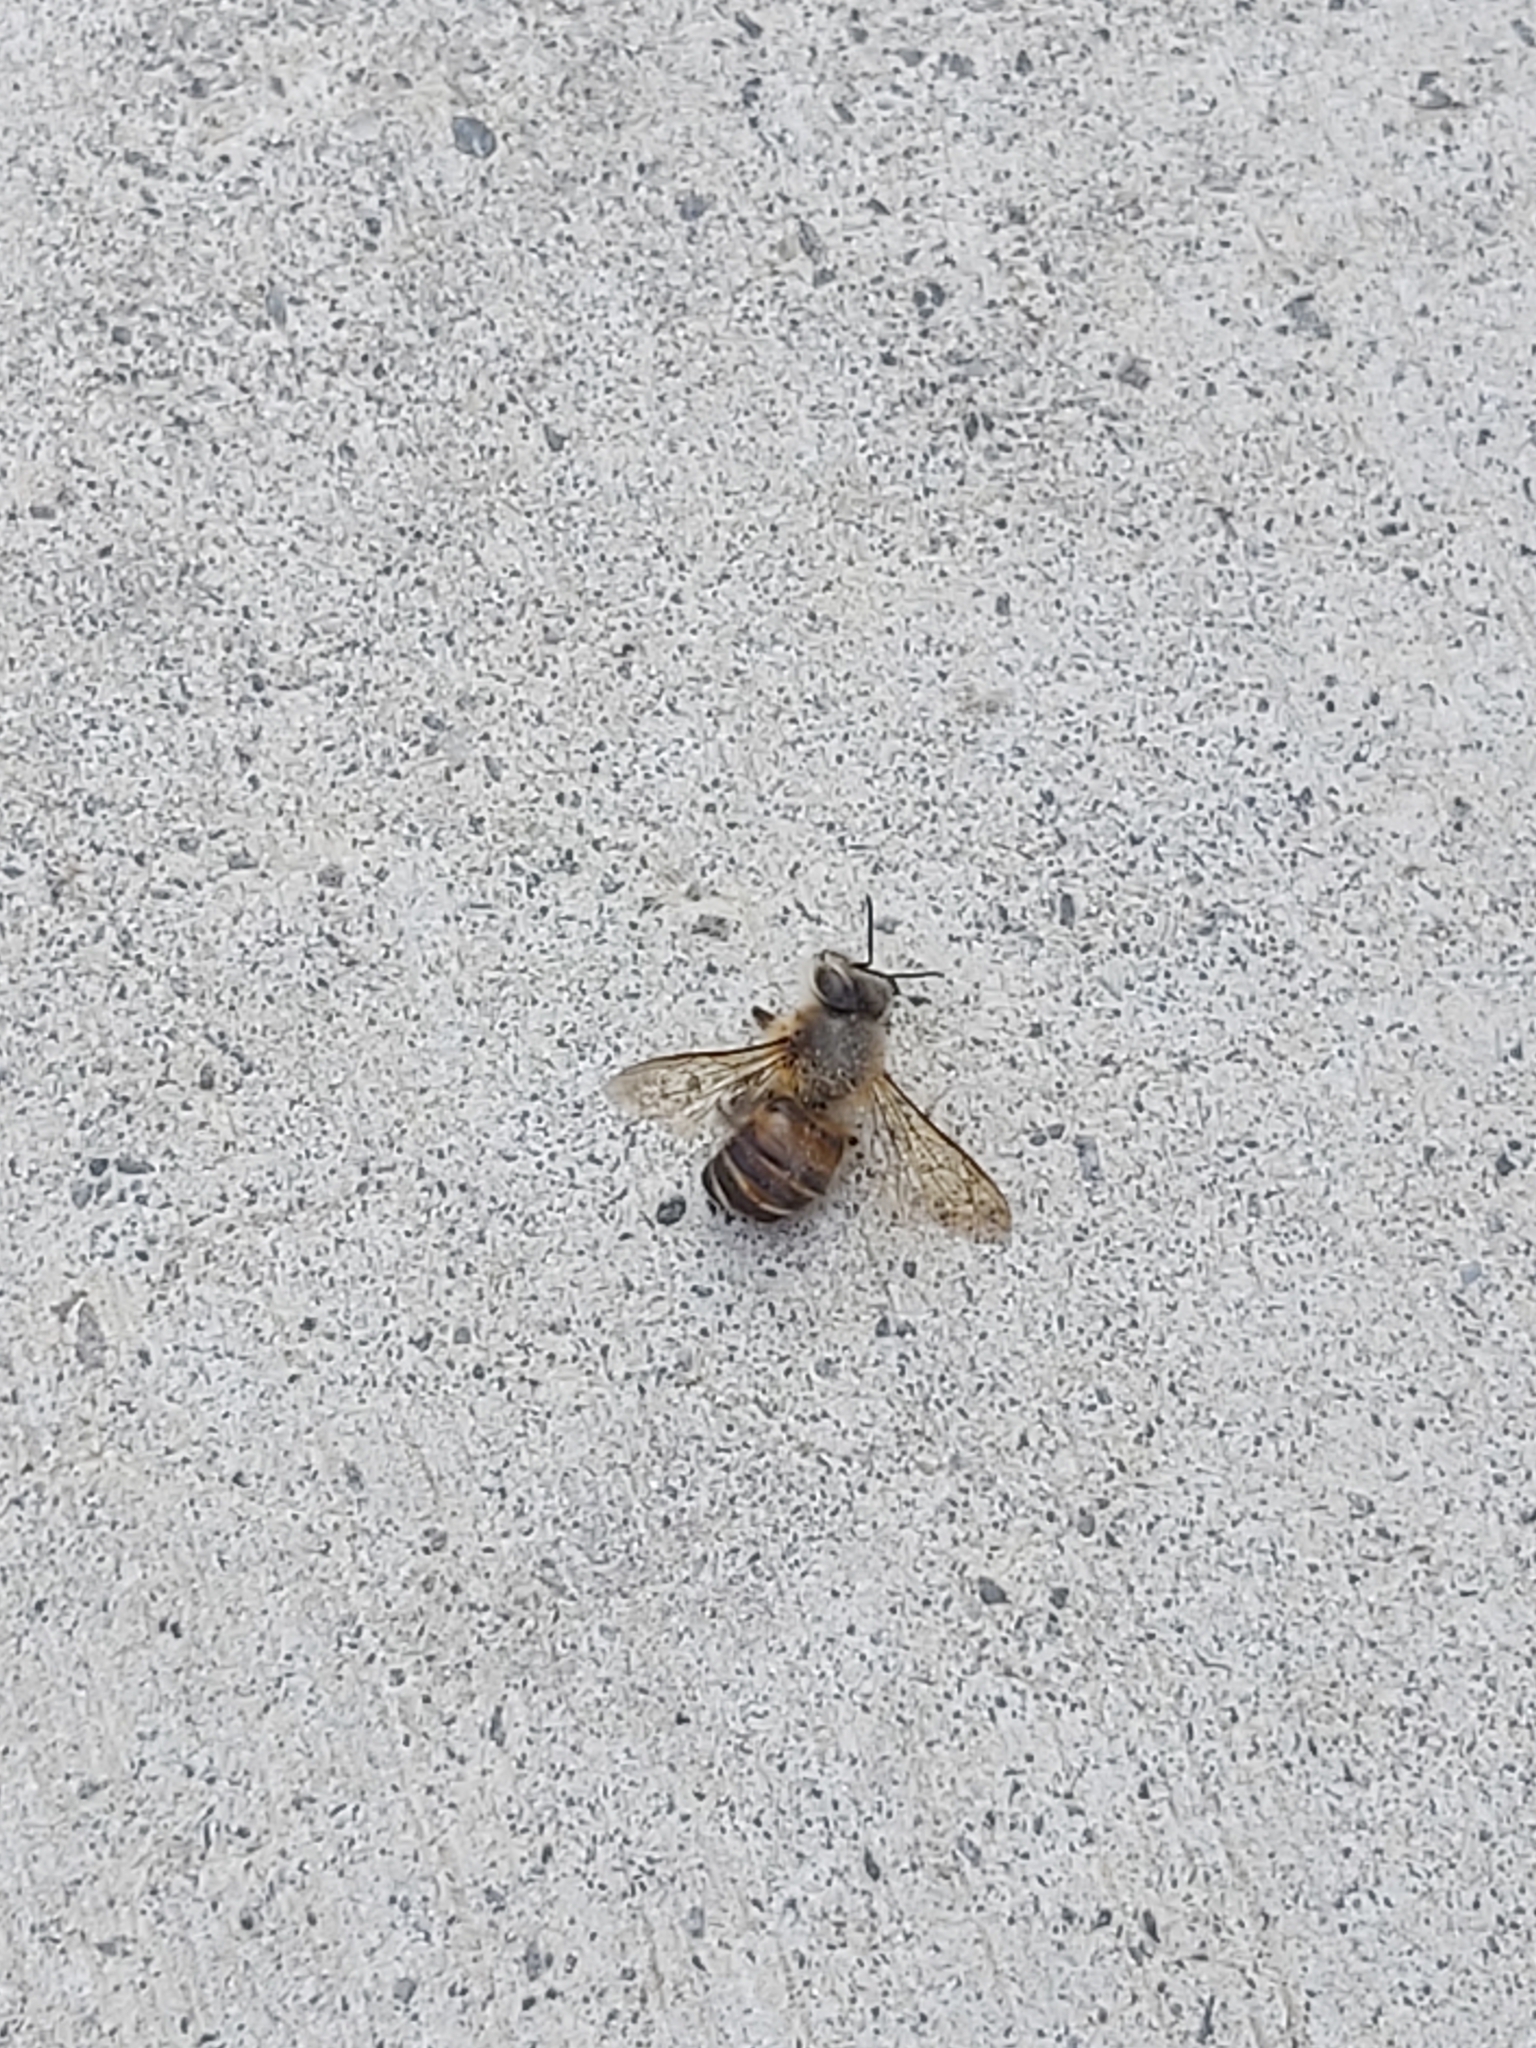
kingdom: Animalia
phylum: Arthropoda
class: Insecta
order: Hymenoptera
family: Apidae
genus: Apis
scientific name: Apis cerana
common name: Honey bee
